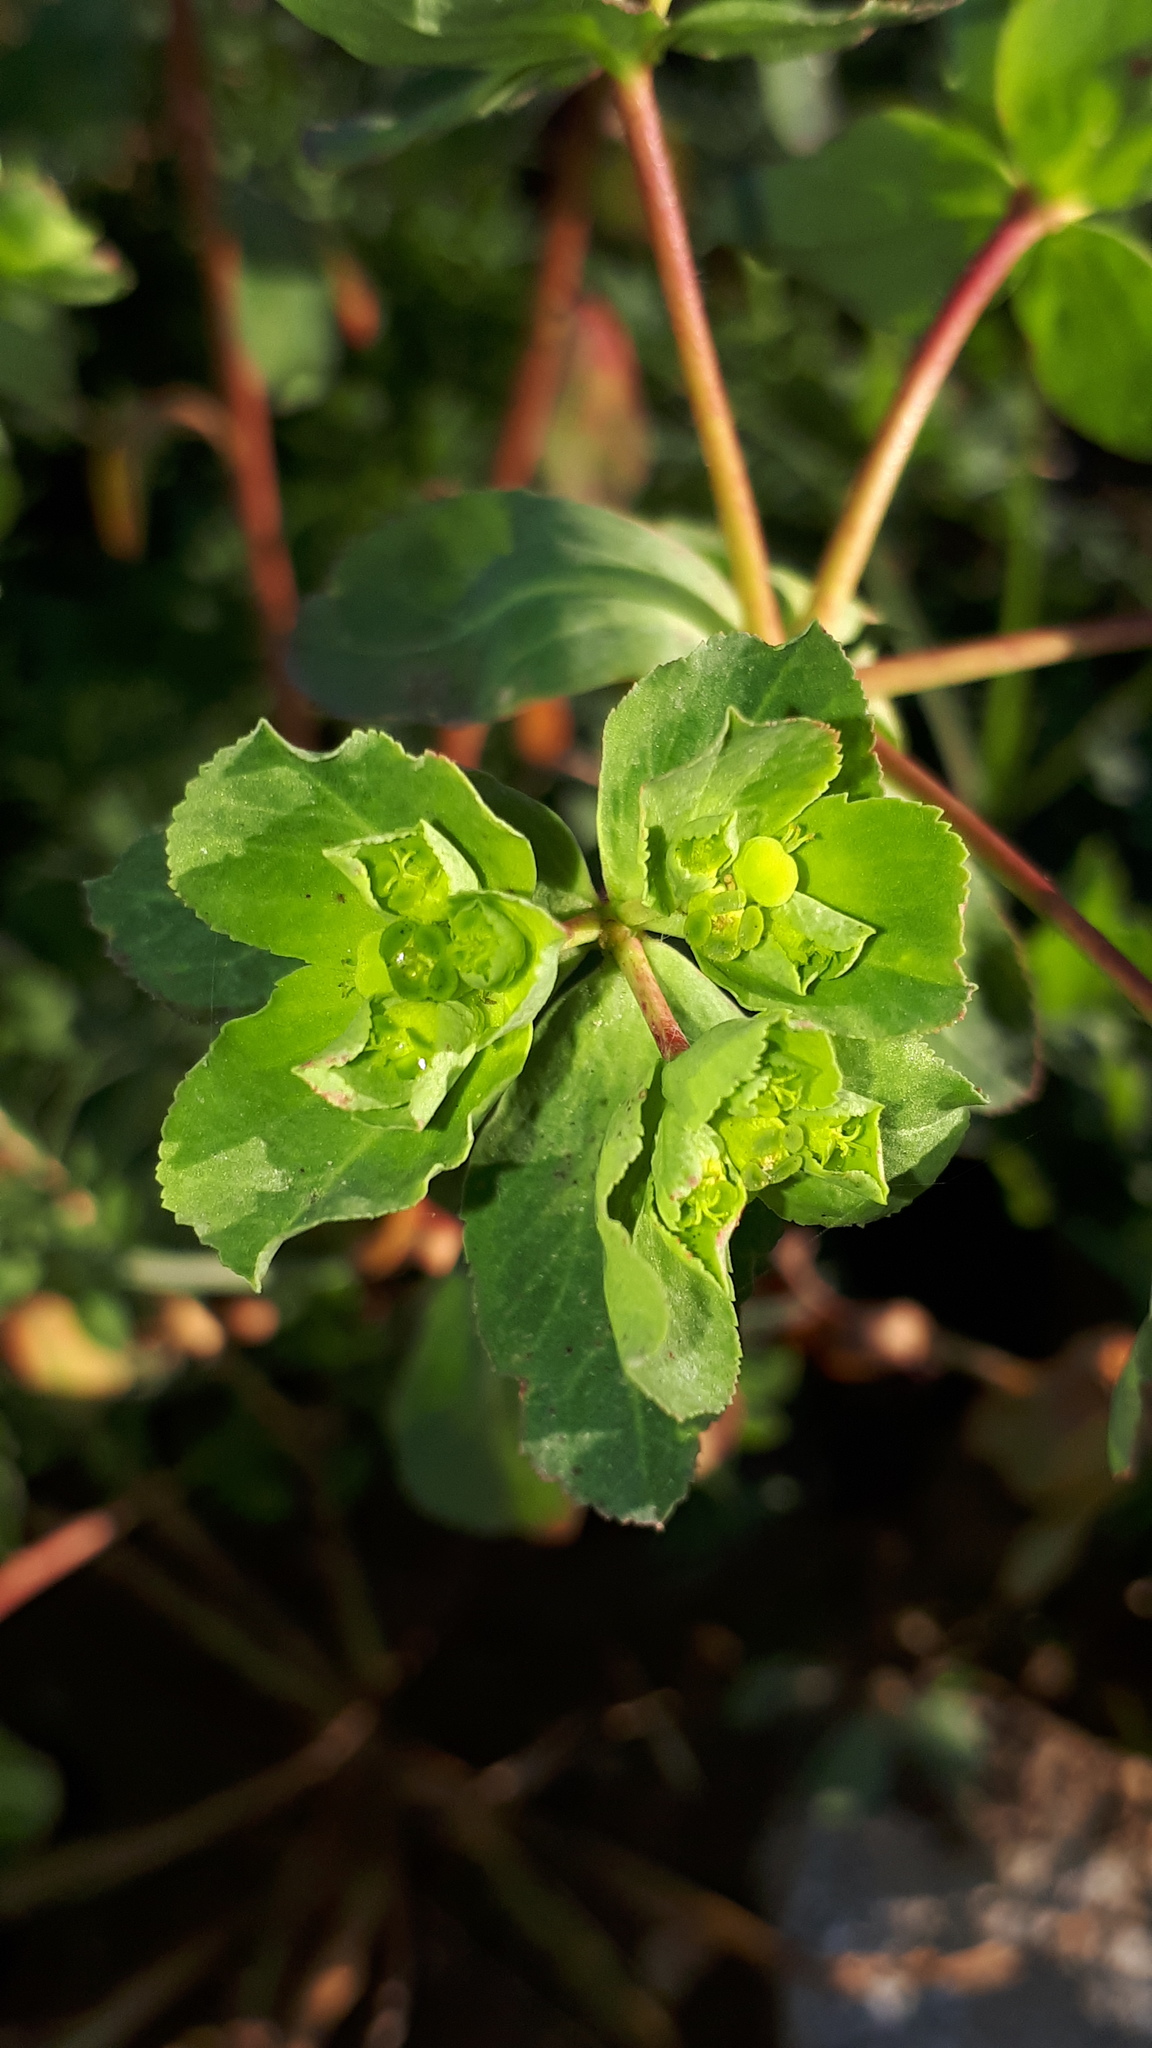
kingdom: Plantae
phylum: Tracheophyta
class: Magnoliopsida
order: Malpighiales
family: Euphorbiaceae
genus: Euphorbia
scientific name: Euphorbia helioscopia
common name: Sun spurge
